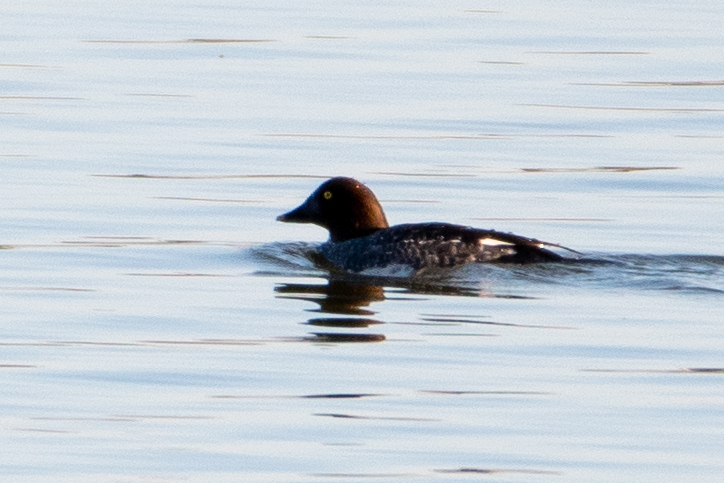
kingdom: Animalia
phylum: Chordata
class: Aves
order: Anseriformes
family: Anatidae
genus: Bucephala
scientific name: Bucephala clangula
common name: Common goldeneye
